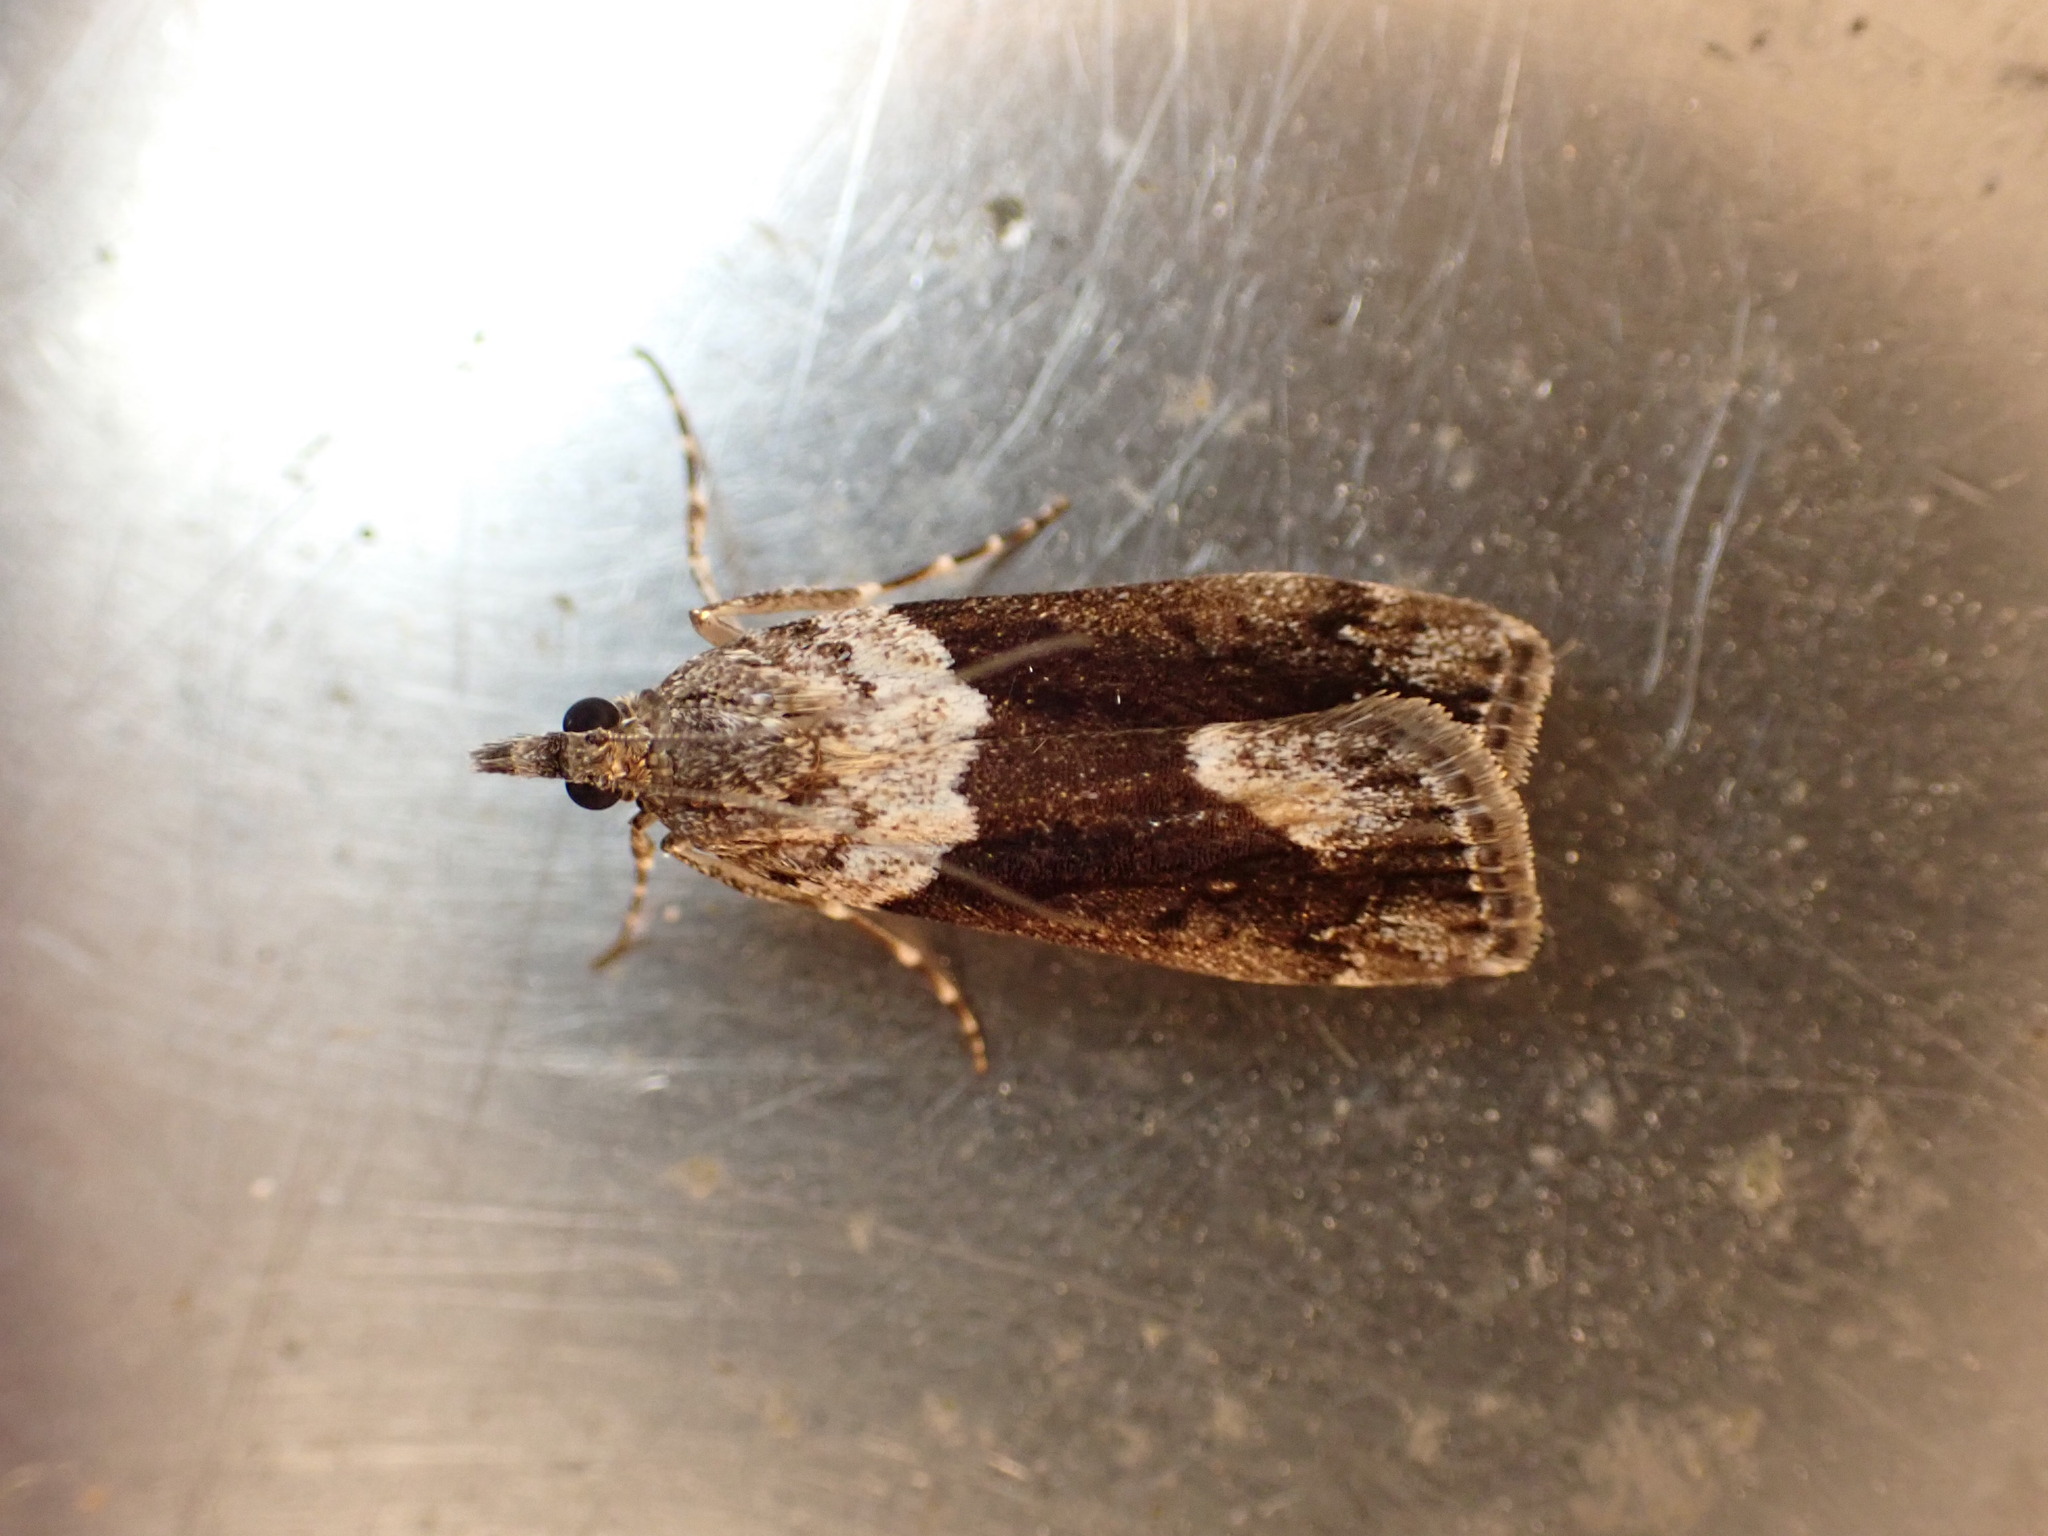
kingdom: Animalia
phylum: Arthropoda
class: Insecta
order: Lepidoptera
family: Crambidae
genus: Eudonia
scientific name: Eudonia submarginalis
